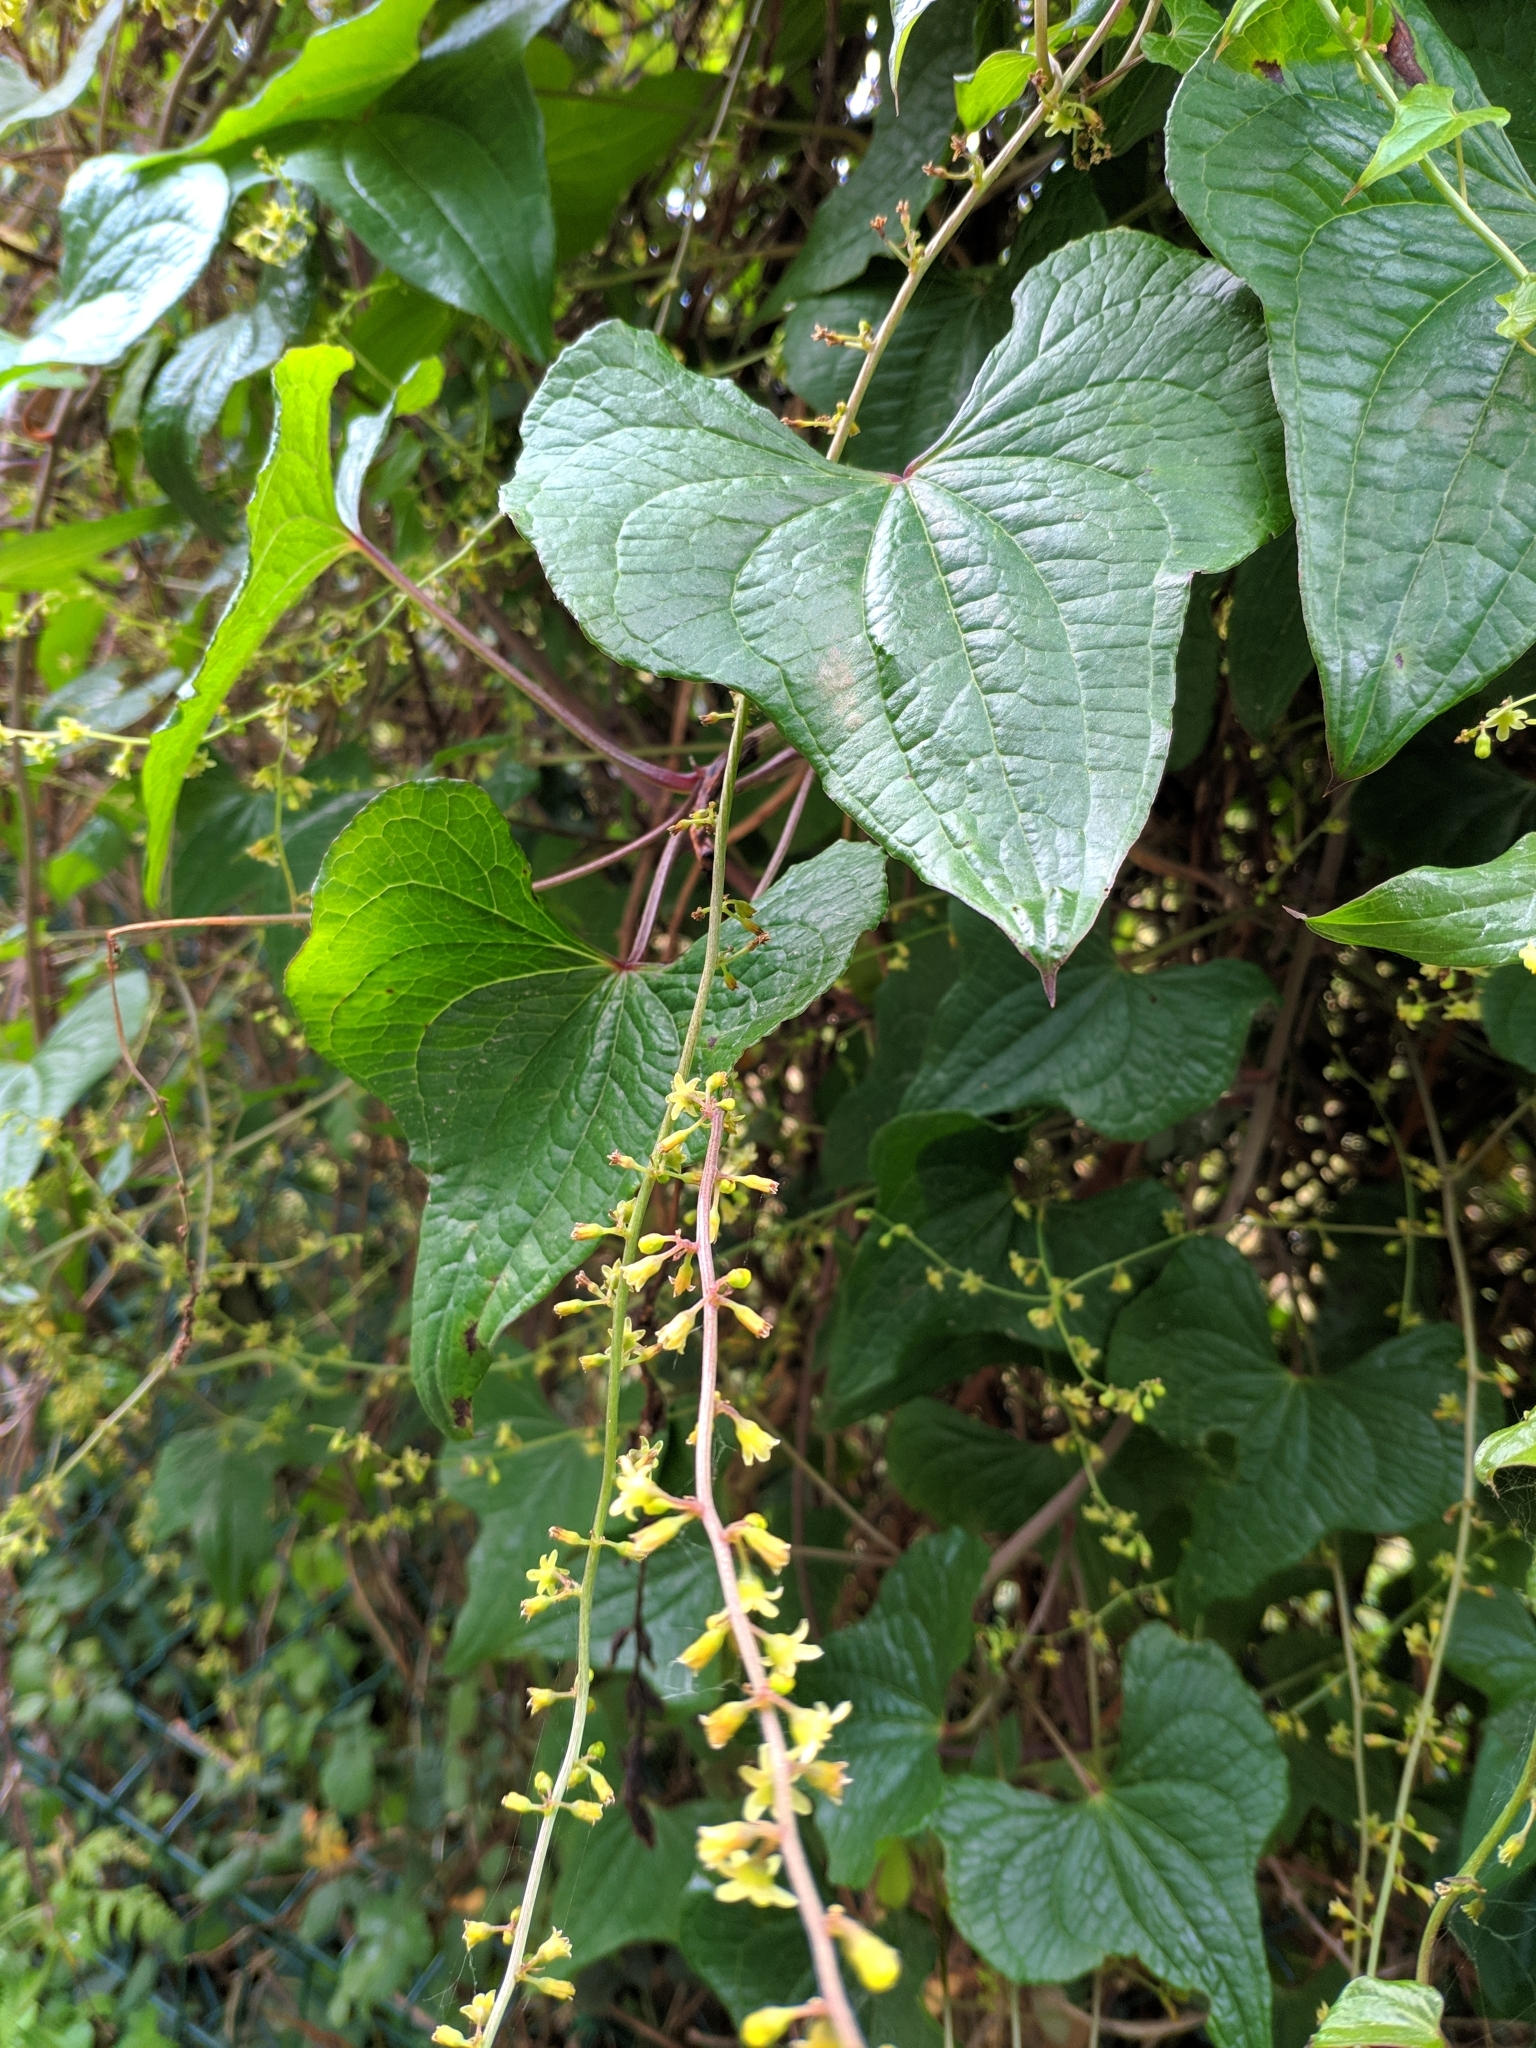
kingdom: Plantae
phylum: Tracheophyta
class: Liliopsida
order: Dioscoreales
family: Dioscoreaceae
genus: Dioscorea
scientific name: Dioscorea communis
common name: Black-bindweed
